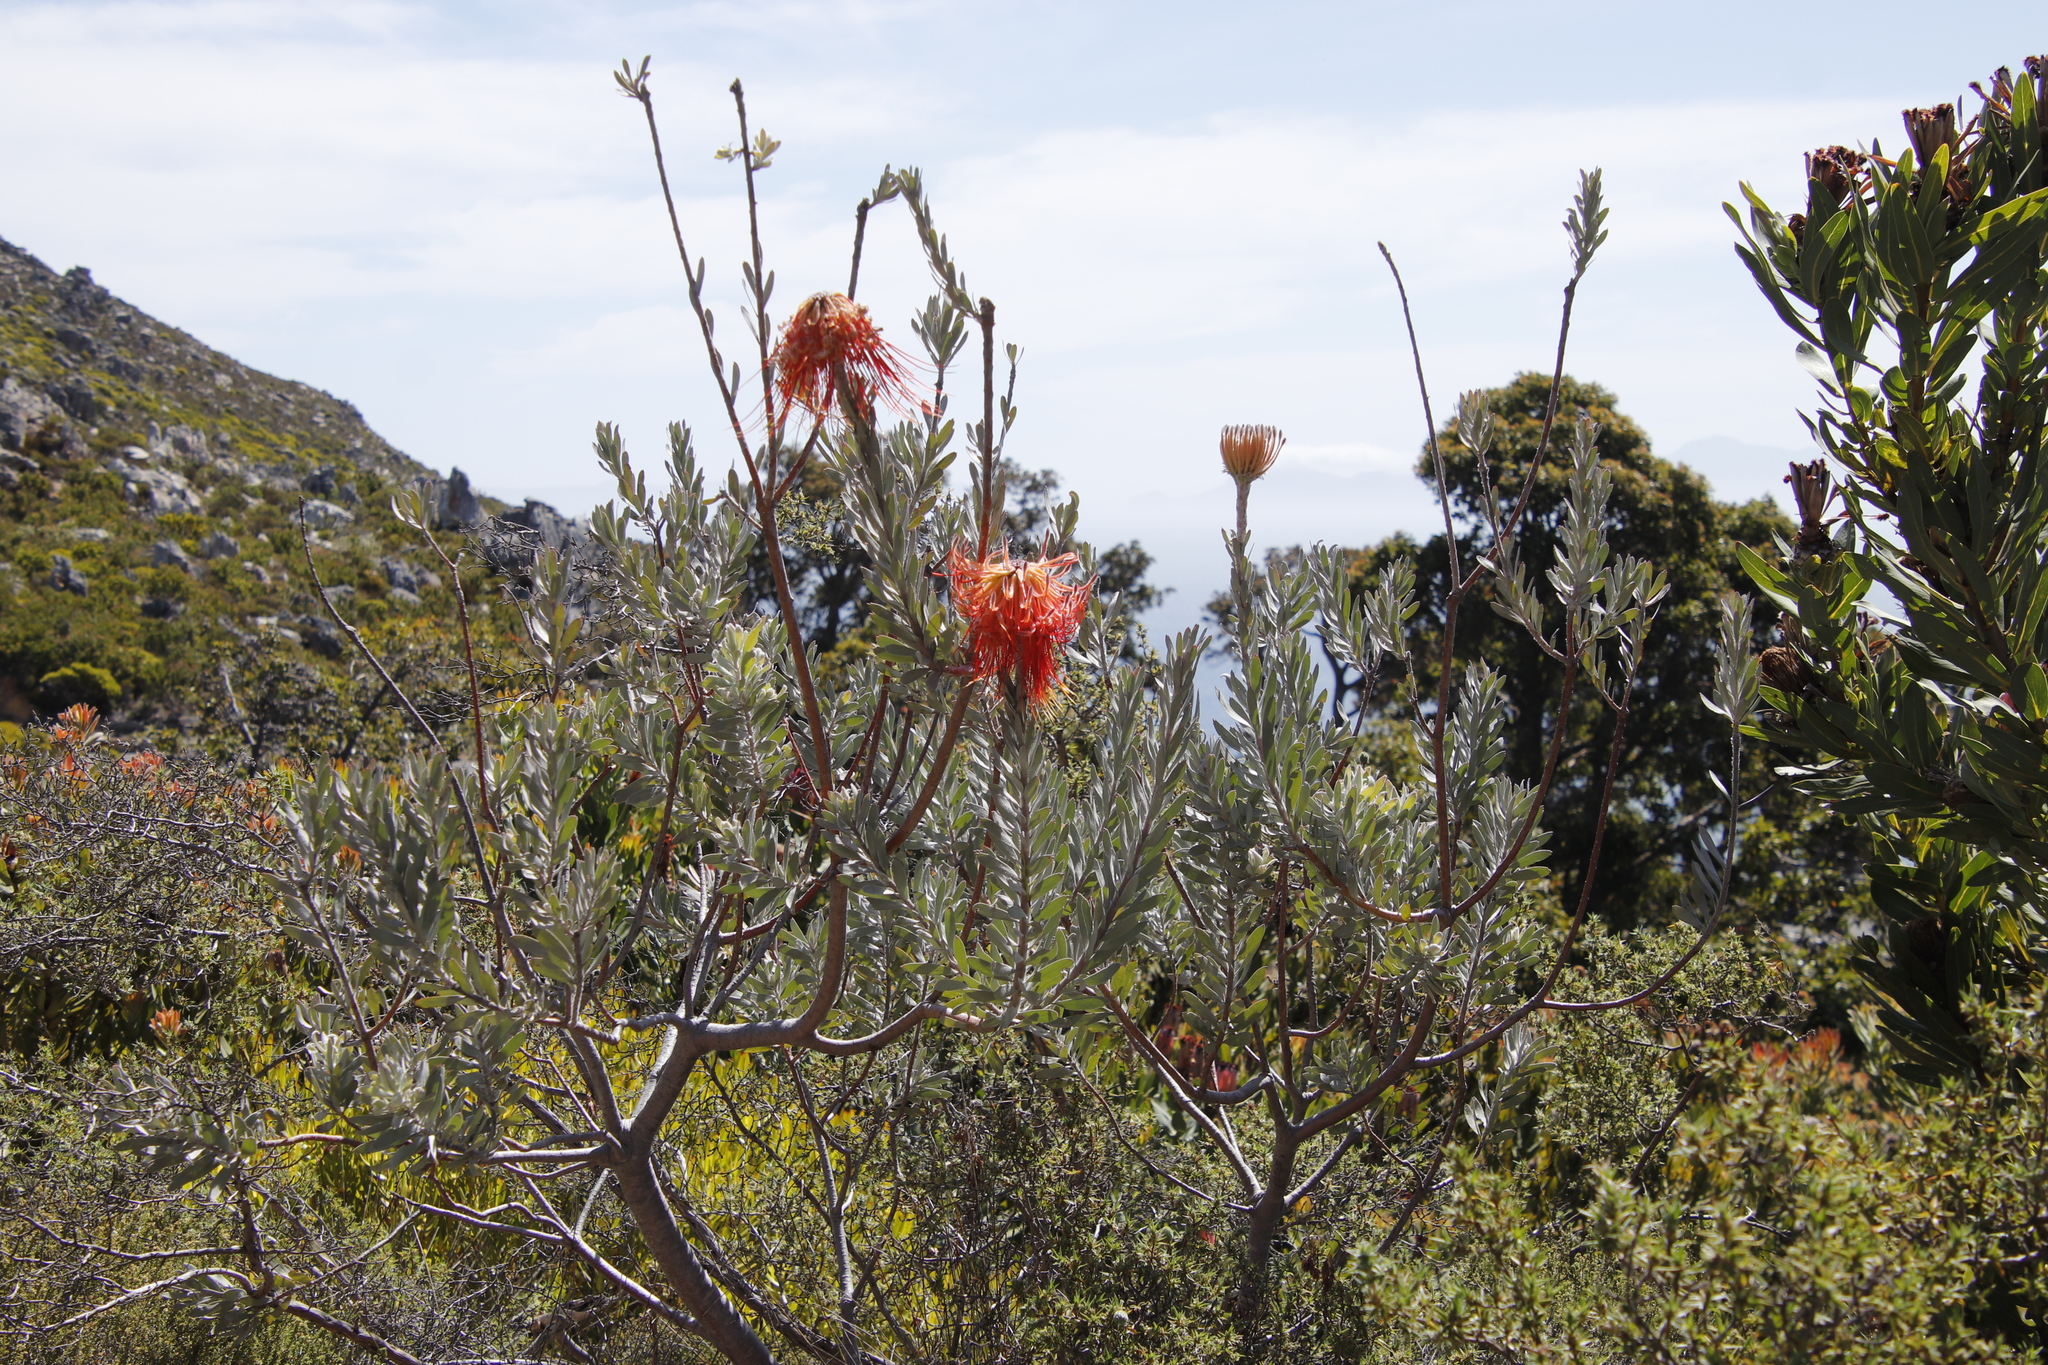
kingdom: Plantae
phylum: Tracheophyta
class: Magnoliopsida
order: Proteales
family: Proteaceae
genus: Leucospermum
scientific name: Leucospermum reflexum
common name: Rocket pincushion
